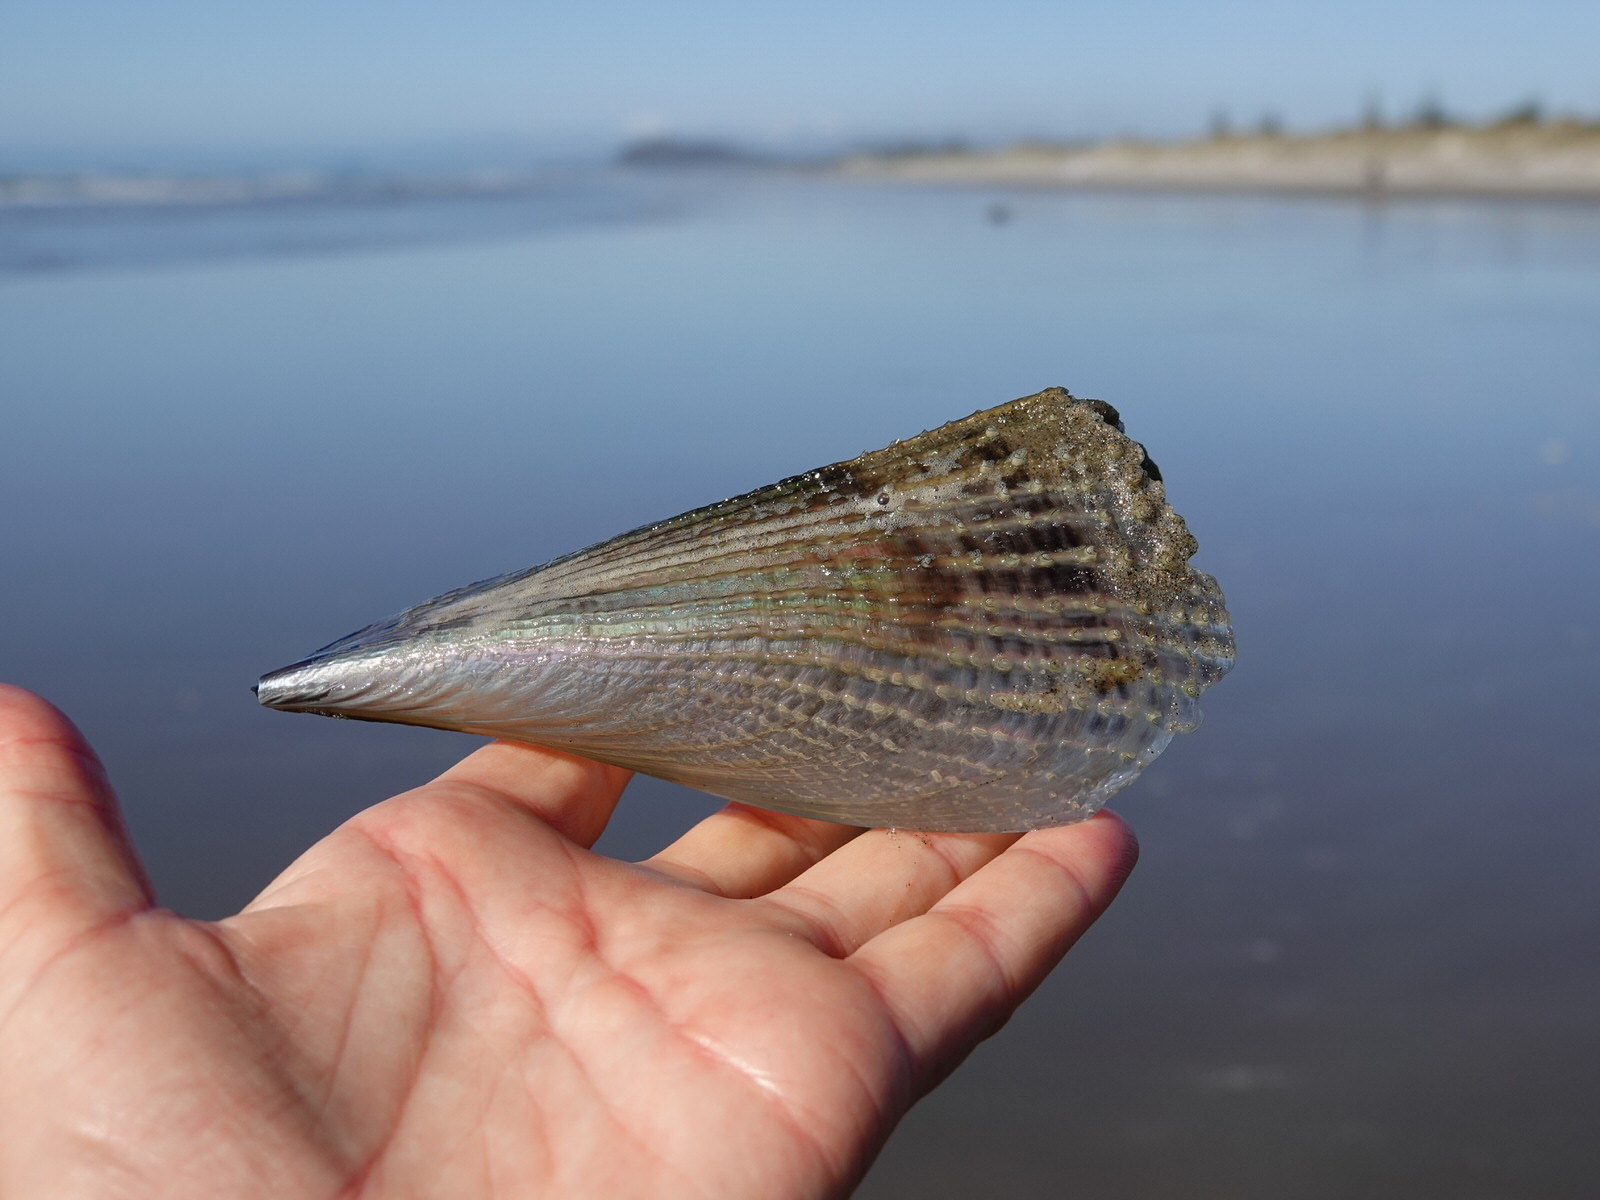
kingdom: Animalia
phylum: Mollusca
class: Bivalvia
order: Ostreida
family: Pinnidae
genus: Atrina
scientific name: Atrina zelandica
